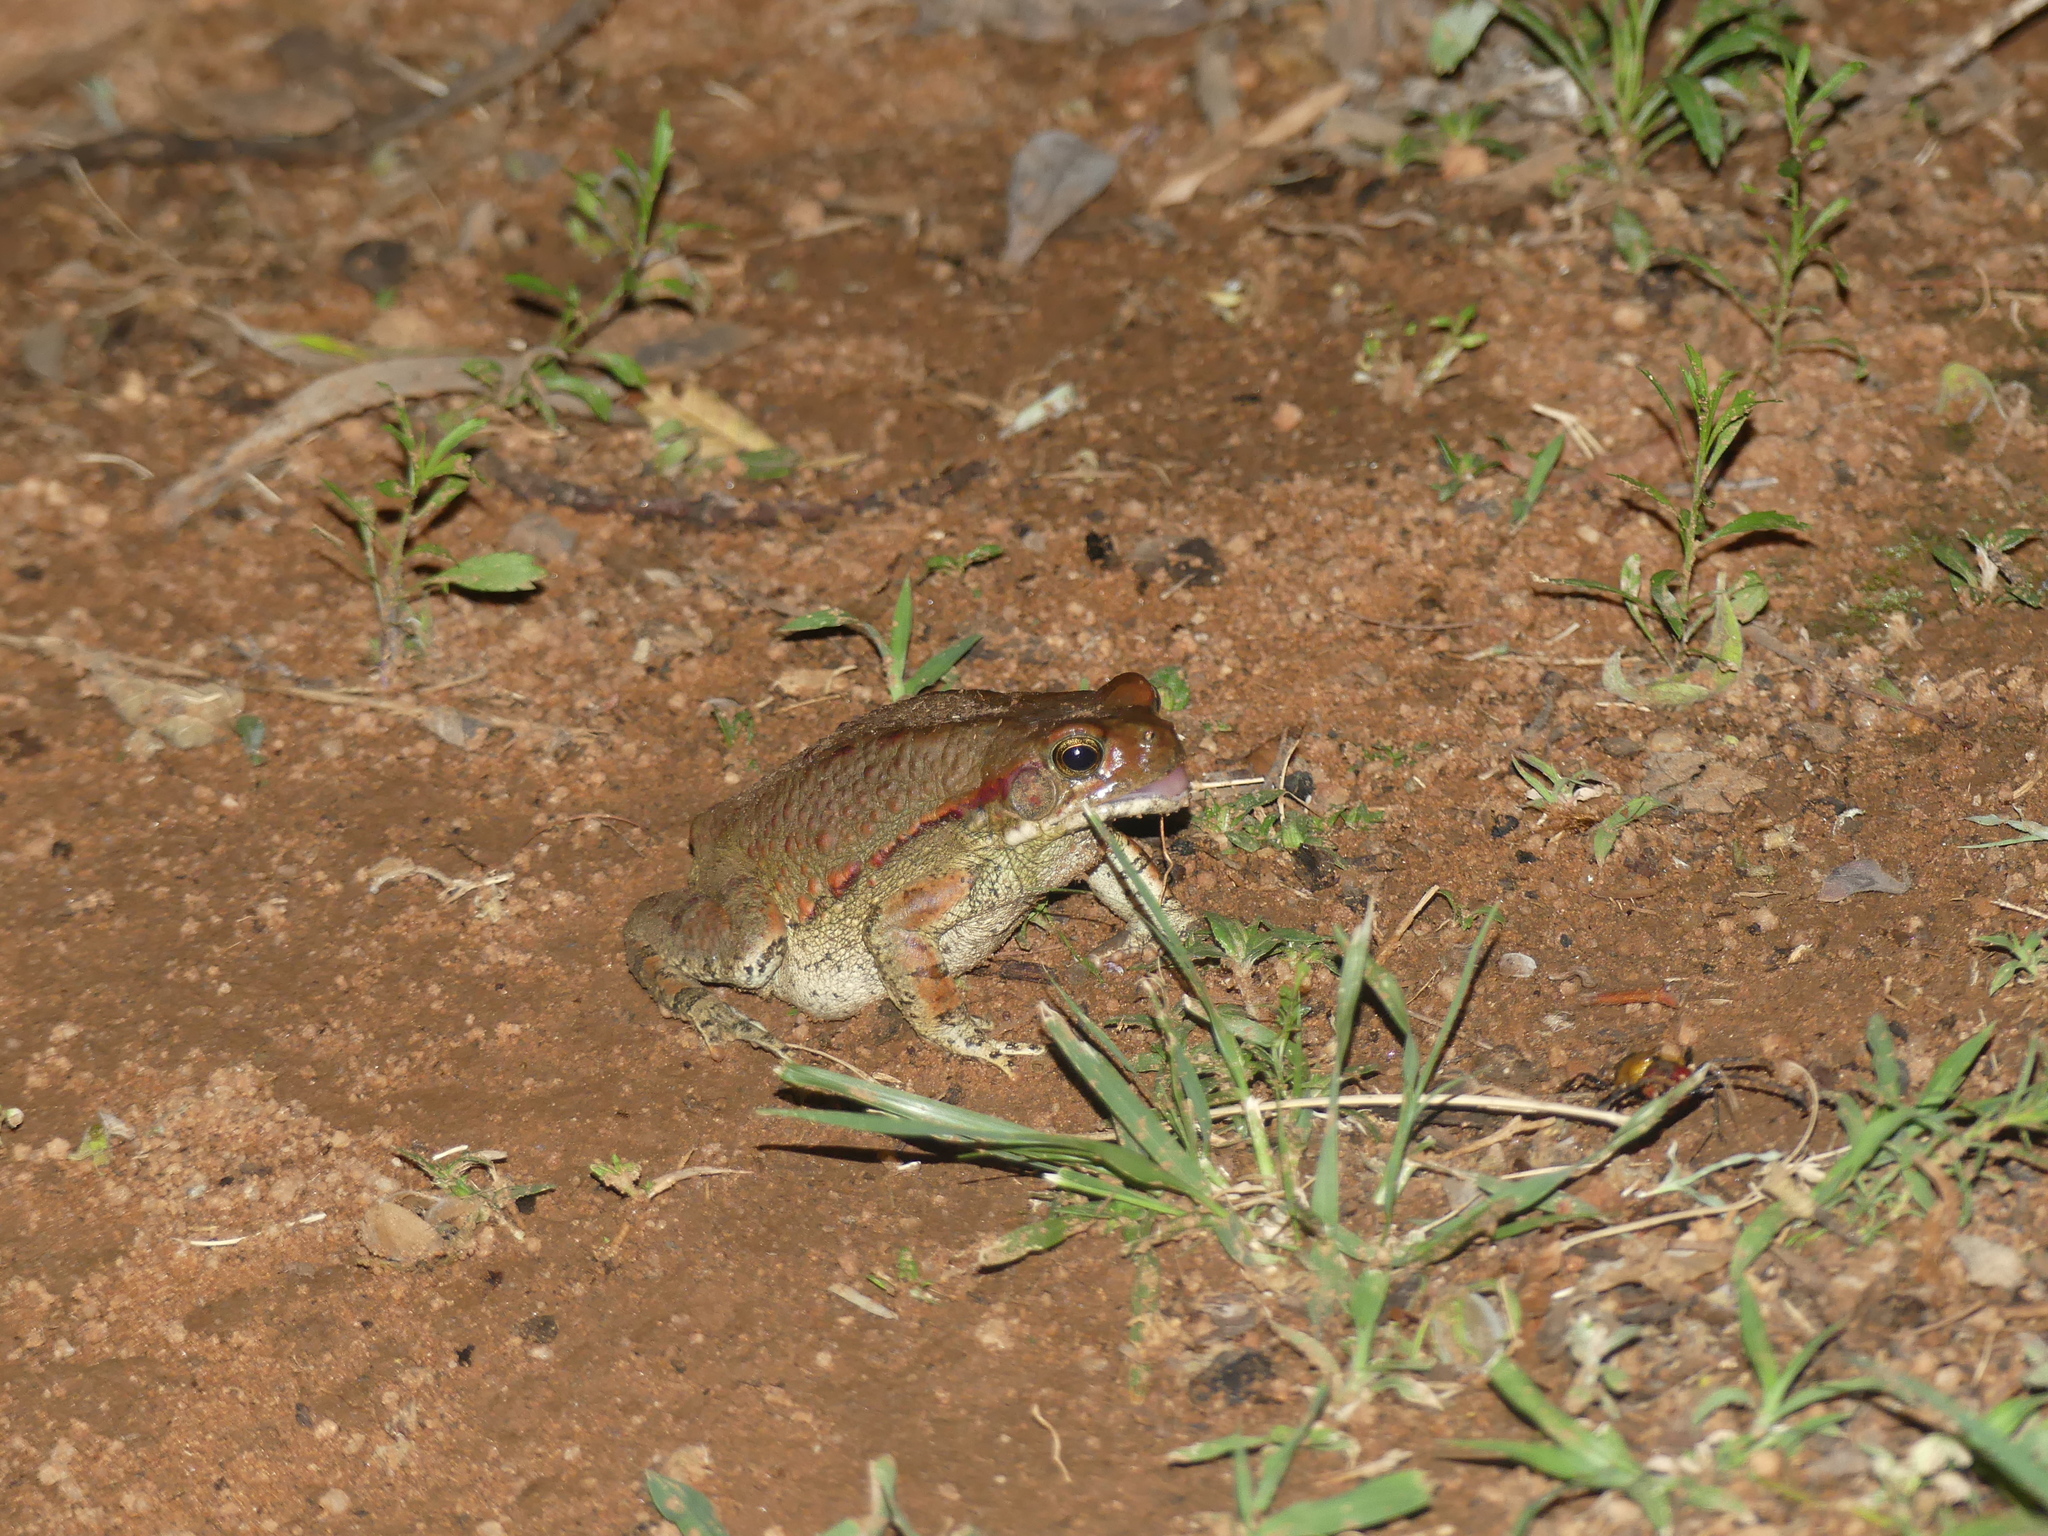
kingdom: Animalia
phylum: Chordata
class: Amphibia
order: Anura
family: Bufonidae
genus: Schismaderma
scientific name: Schismaderma carens
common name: African split-skin toad
